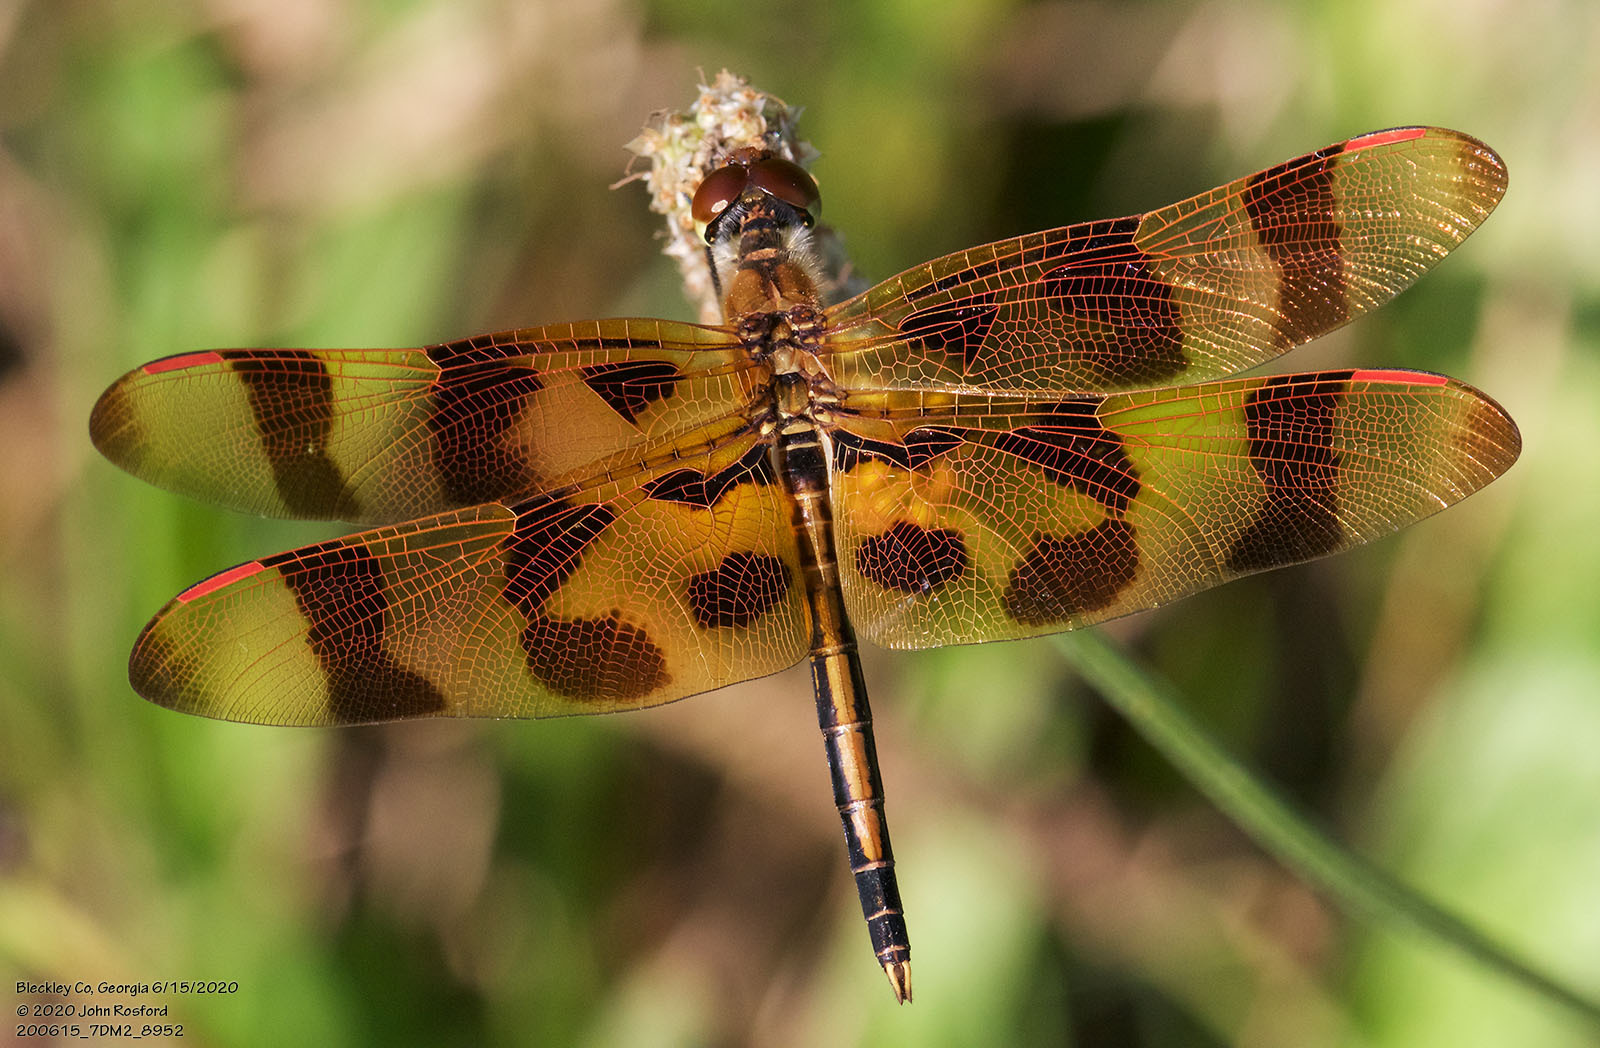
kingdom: Animalia
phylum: Arthropoda
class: Insecta
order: Odonata
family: Libellulidae
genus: Celithemis
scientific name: Celithemis eponina
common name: Halloween pennant
